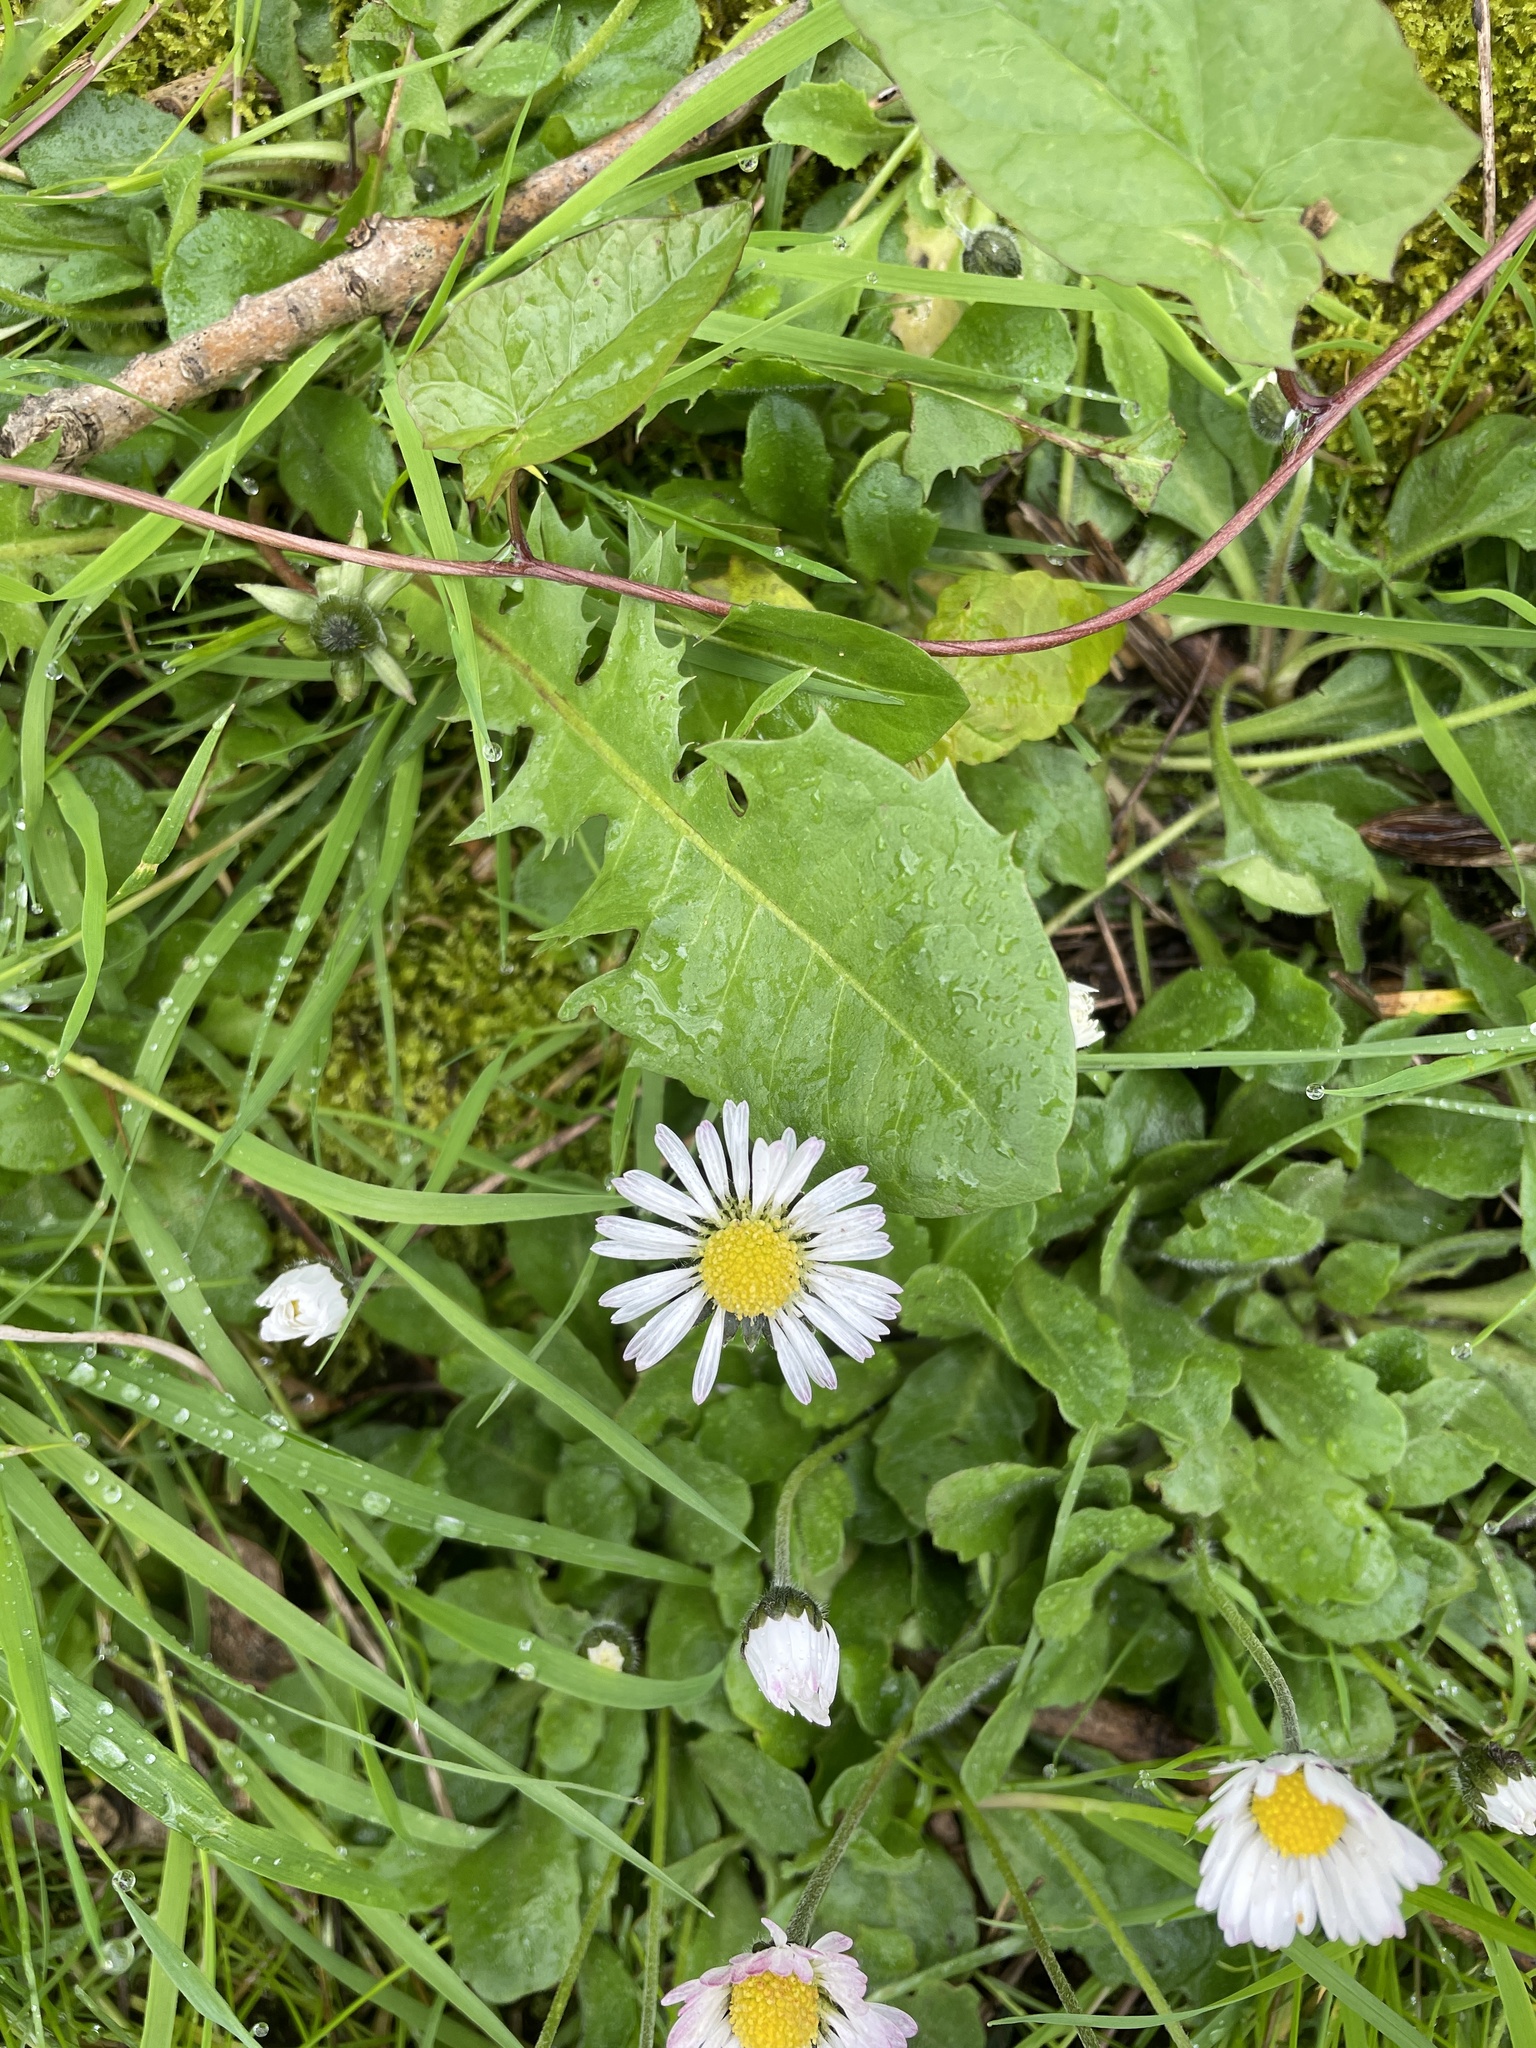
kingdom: Plantae
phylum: Tracheophyta
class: Magnoliopsida
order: Asterales
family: Asteraceae
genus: Bellis
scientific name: Bellis perennis
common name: Lawndaisy
